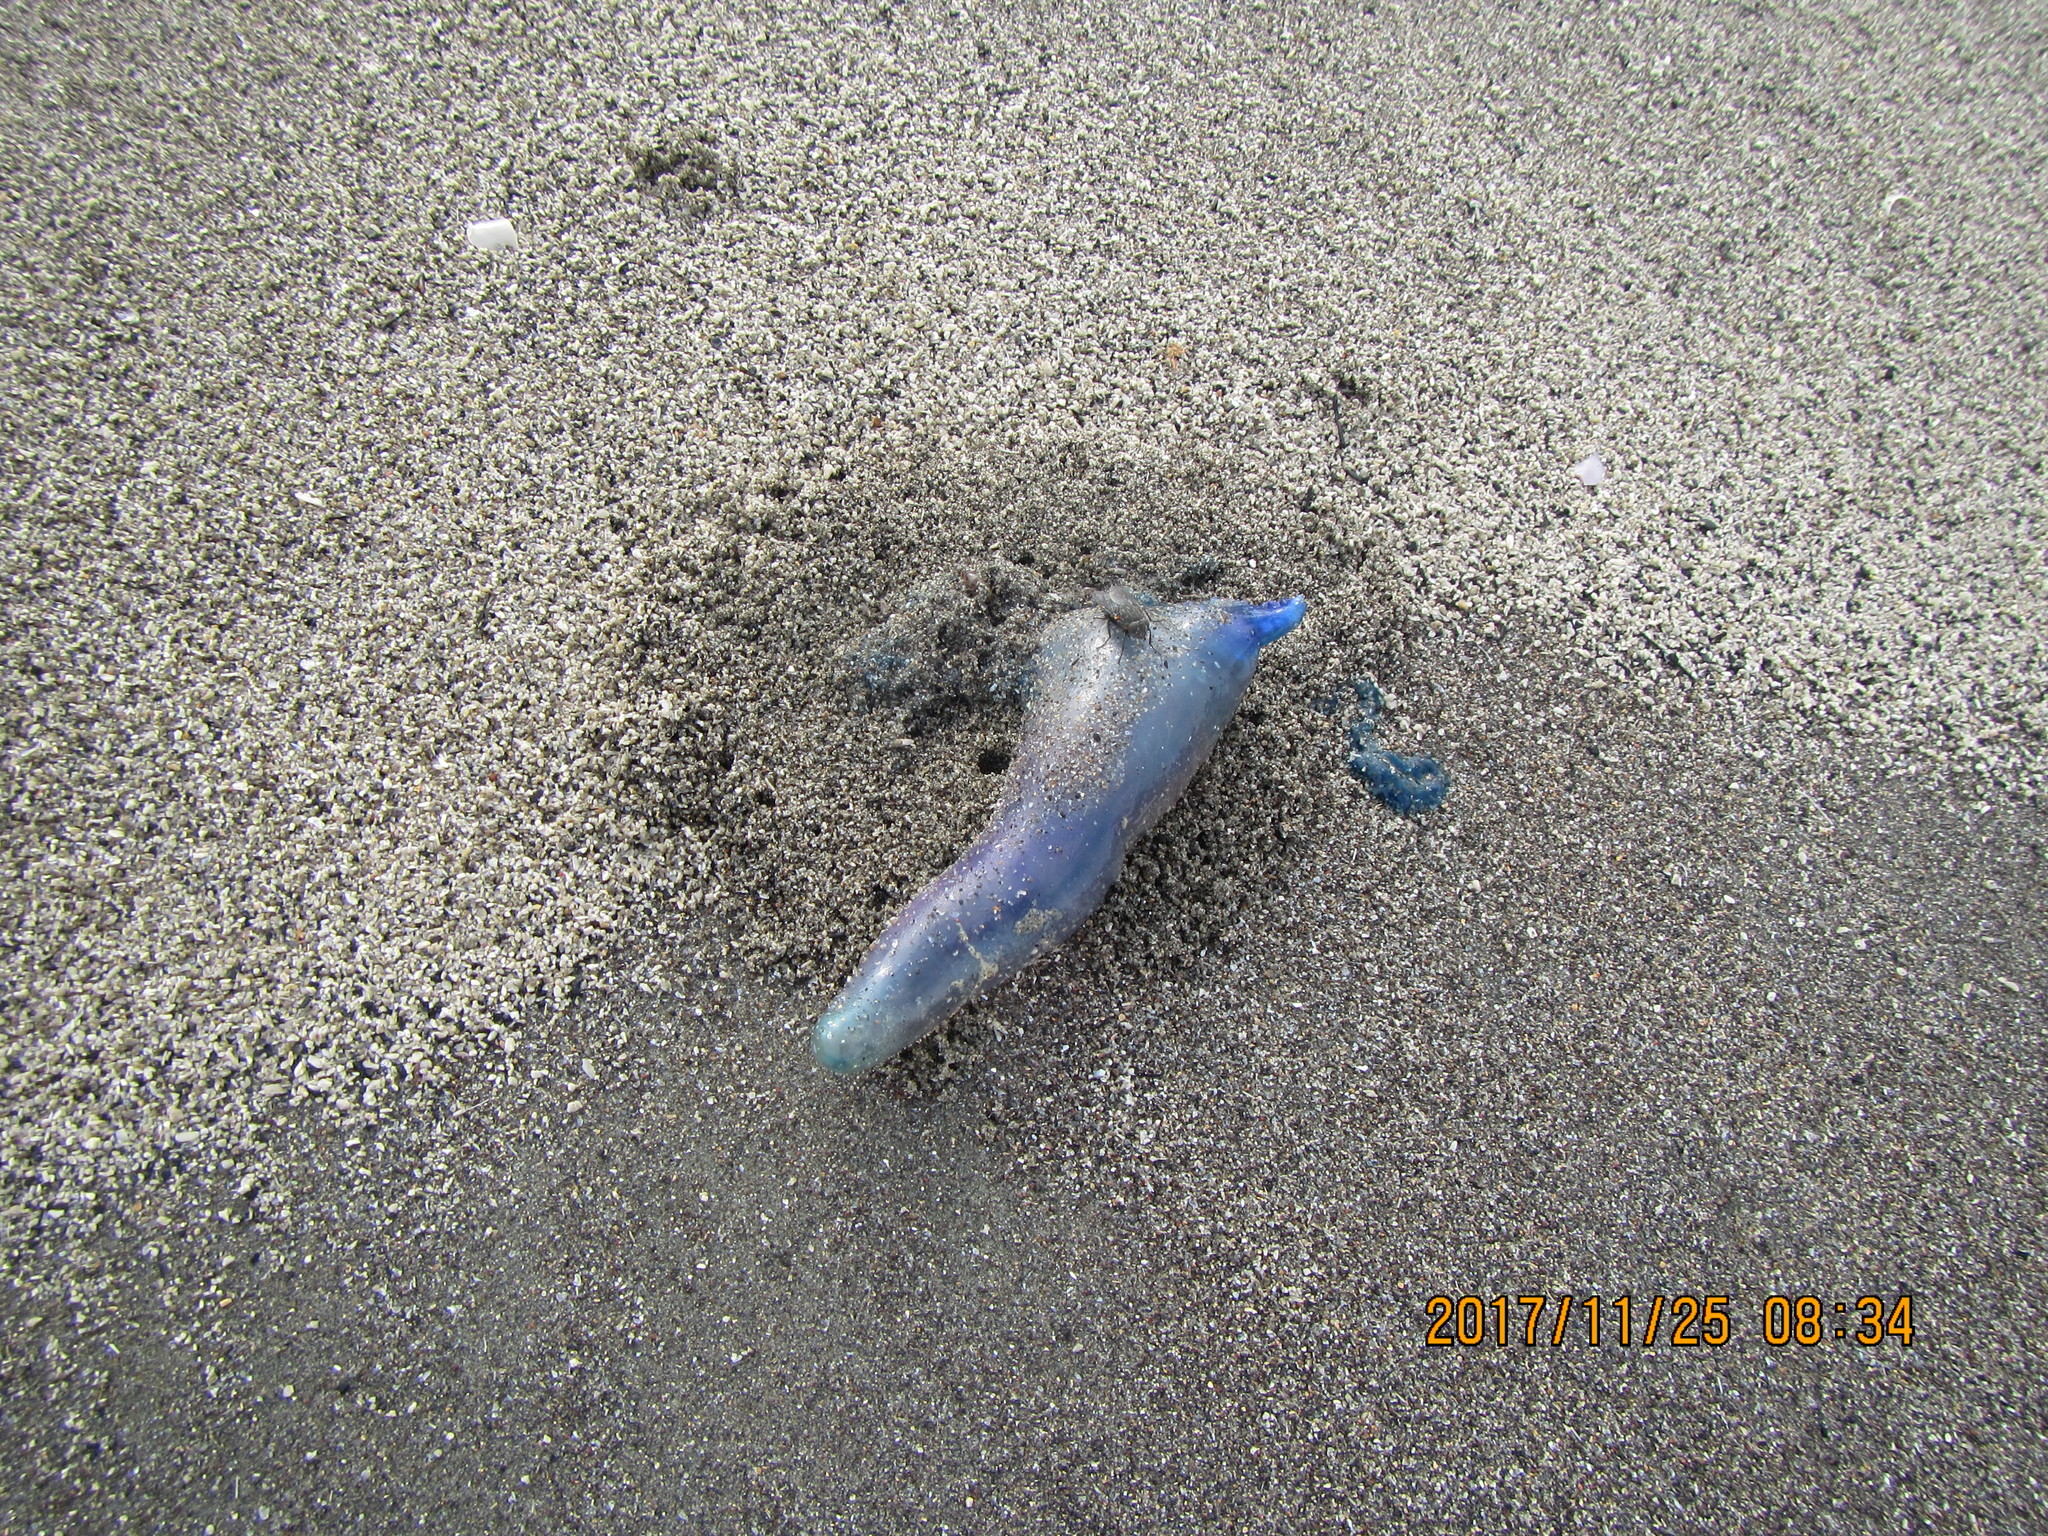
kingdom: Animalia
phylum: Cnidaria
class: Hydrozoa
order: Siphonophorae
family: Physaliidae
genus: Physalia
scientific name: Physalia physalis
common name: Portuguese man-of-war
